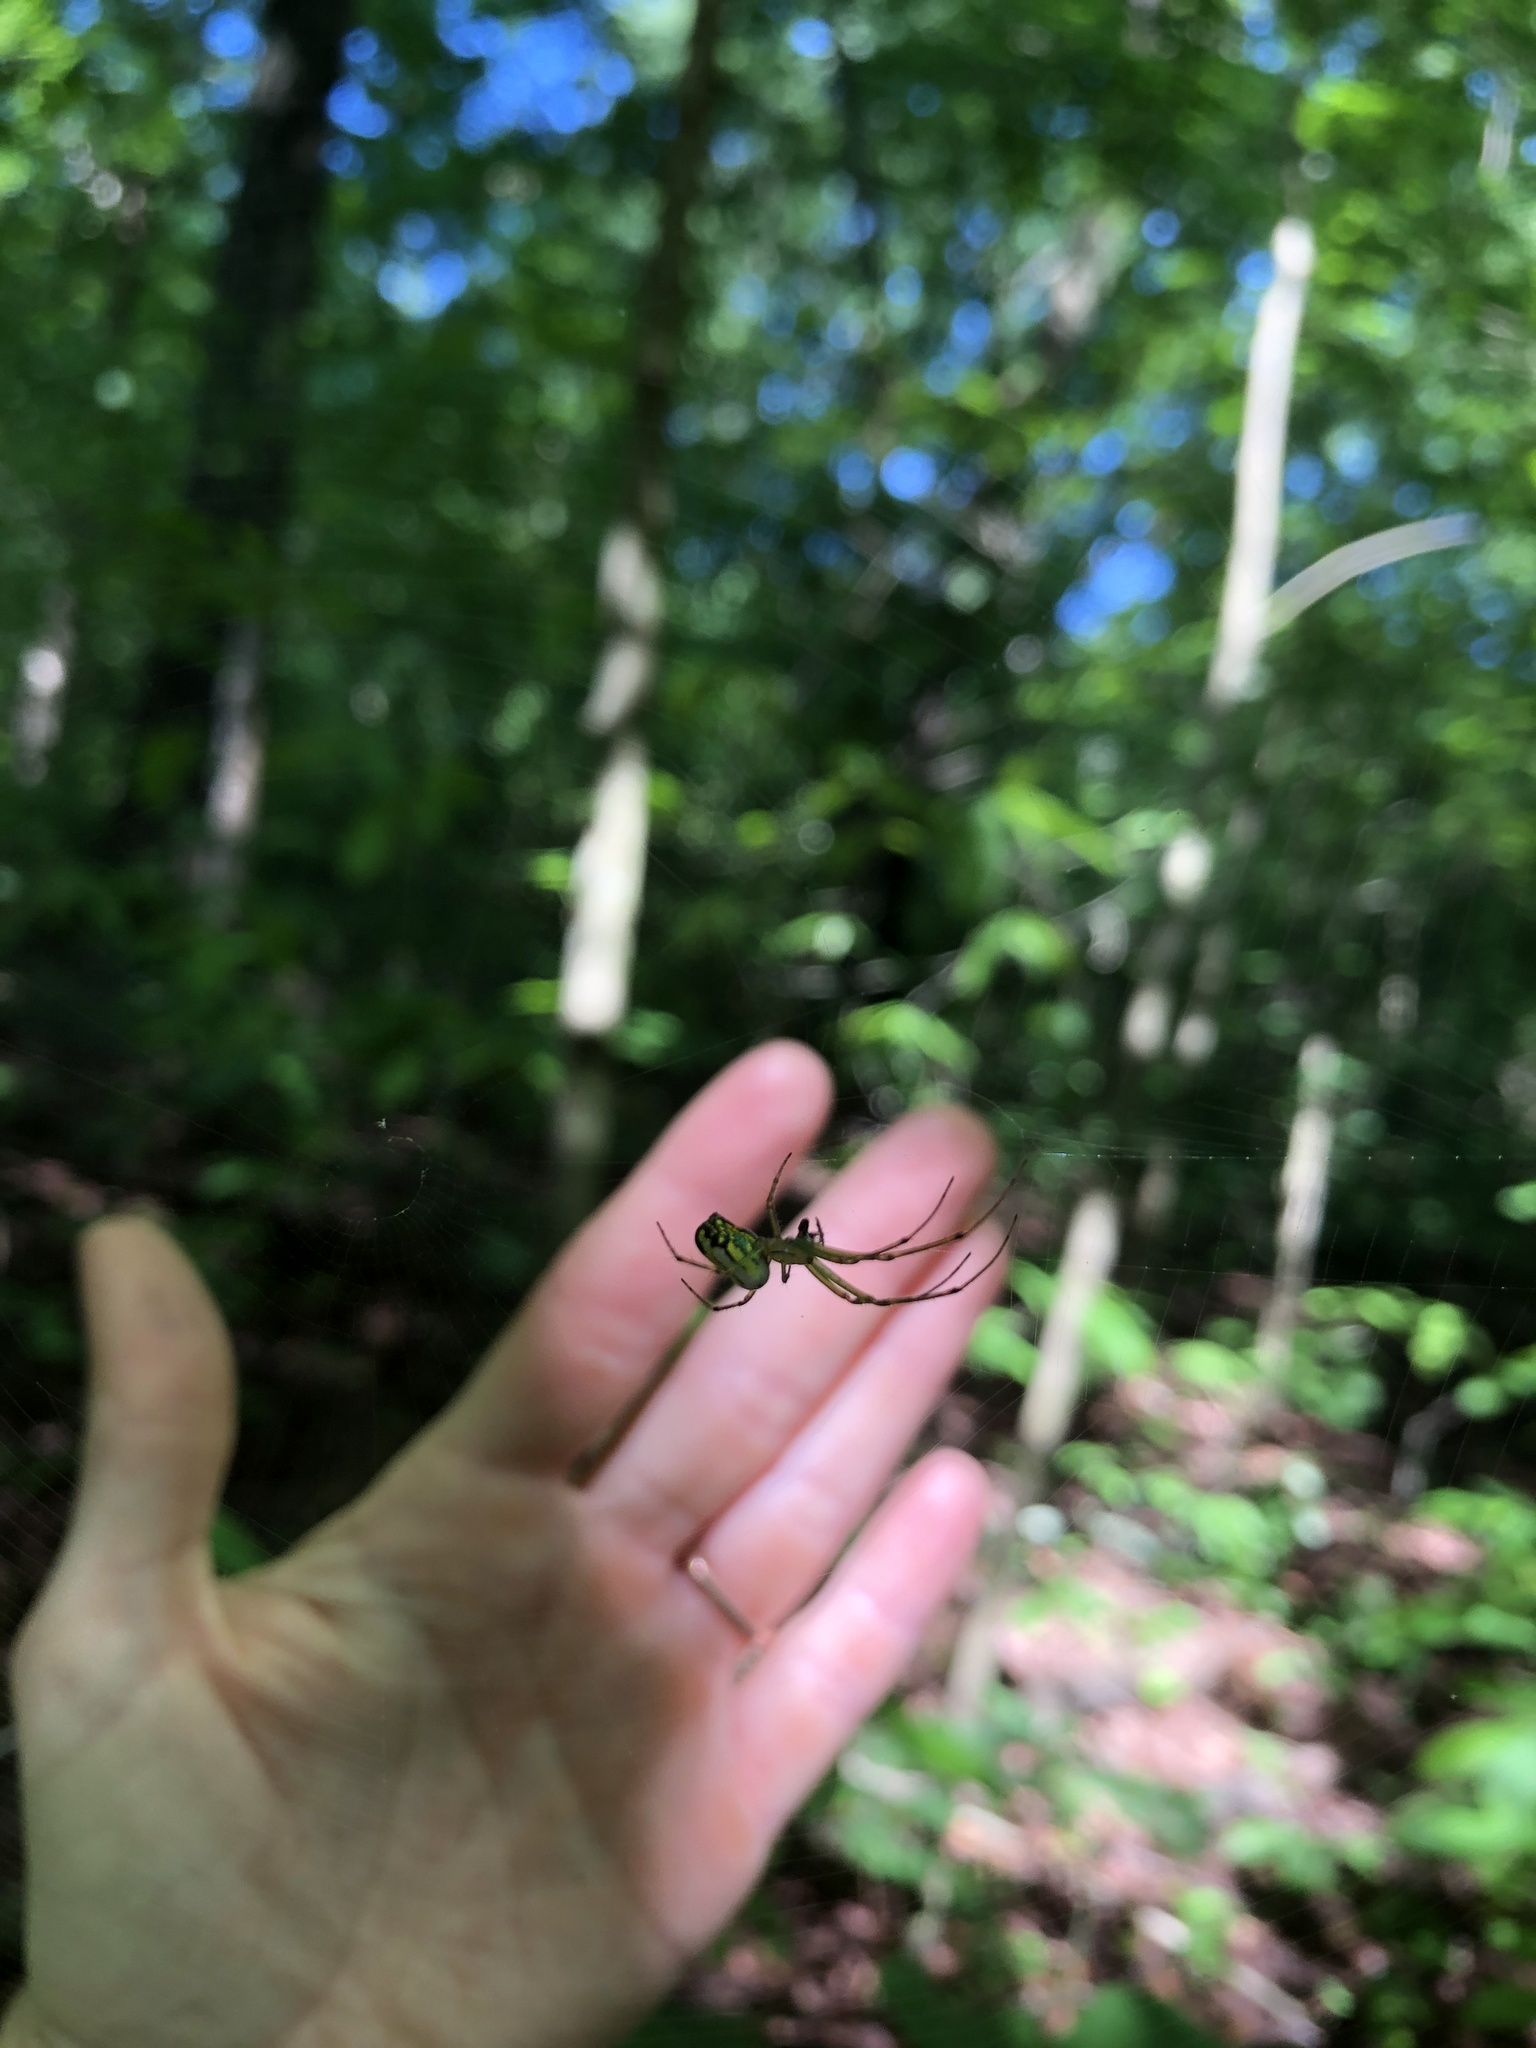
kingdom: Animalia
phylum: Arthropoda
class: Arachnida
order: Araneae
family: Tetragnathidae
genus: Leucauge
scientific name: Leucauge venusta
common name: Longjawed orb weavers
